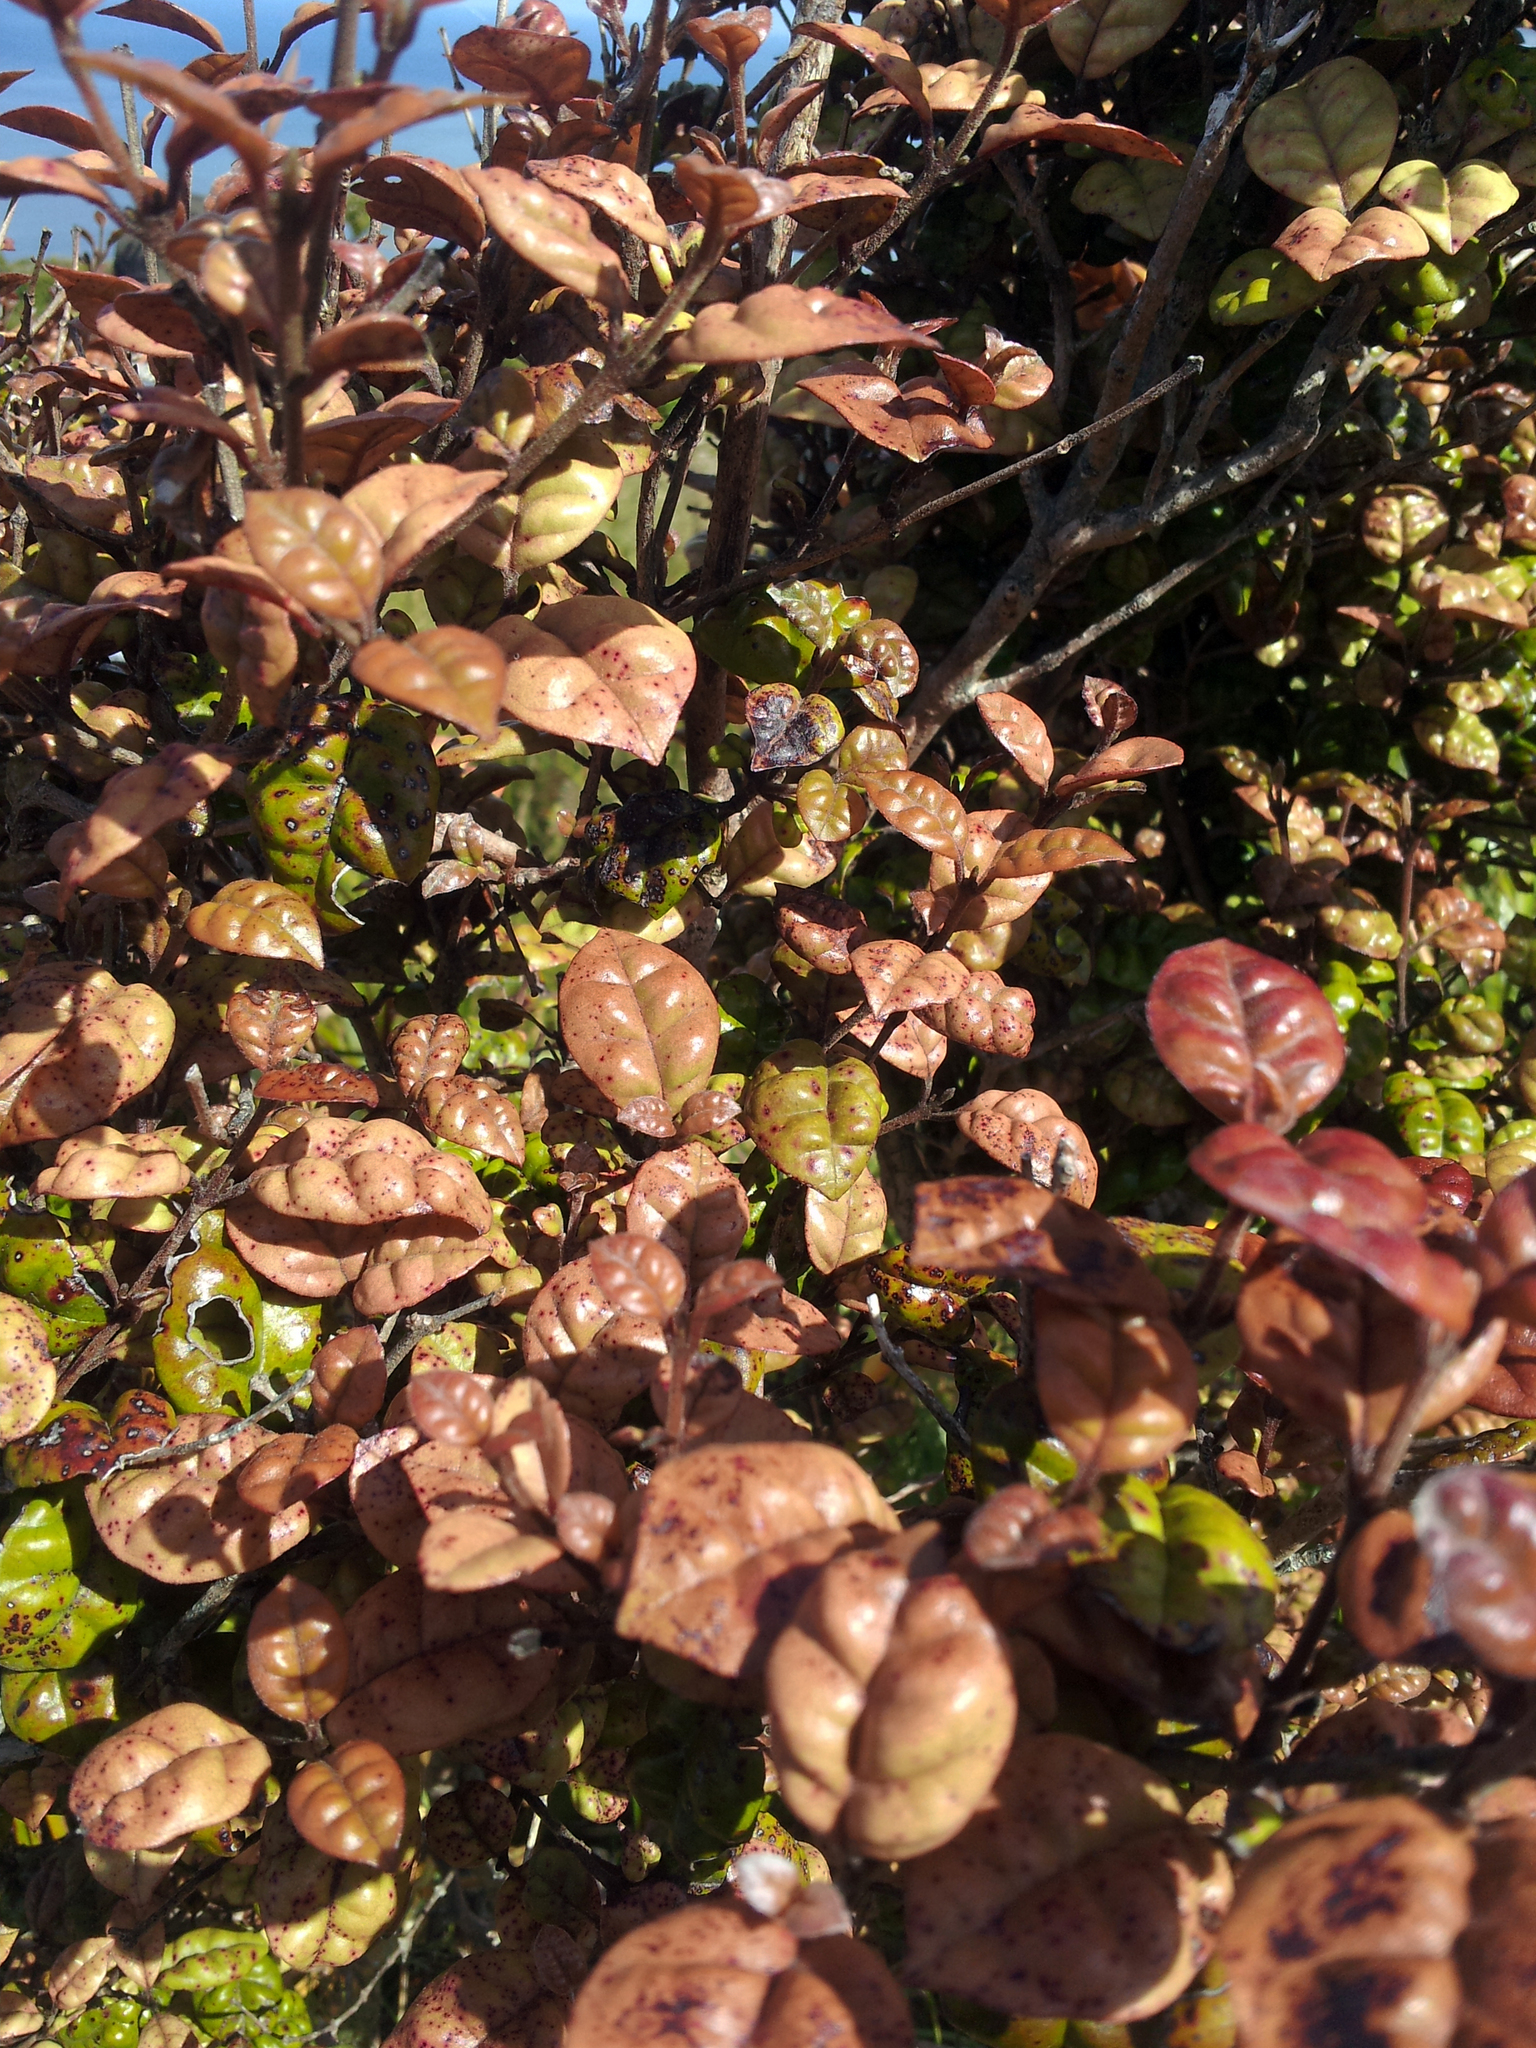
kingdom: Plantae
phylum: Tracheophyta
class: Magnoliopsida
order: Myrtales
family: Myrtaceae
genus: Lophomyrtus
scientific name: Lophomyrtus bullata
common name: Rama rama
